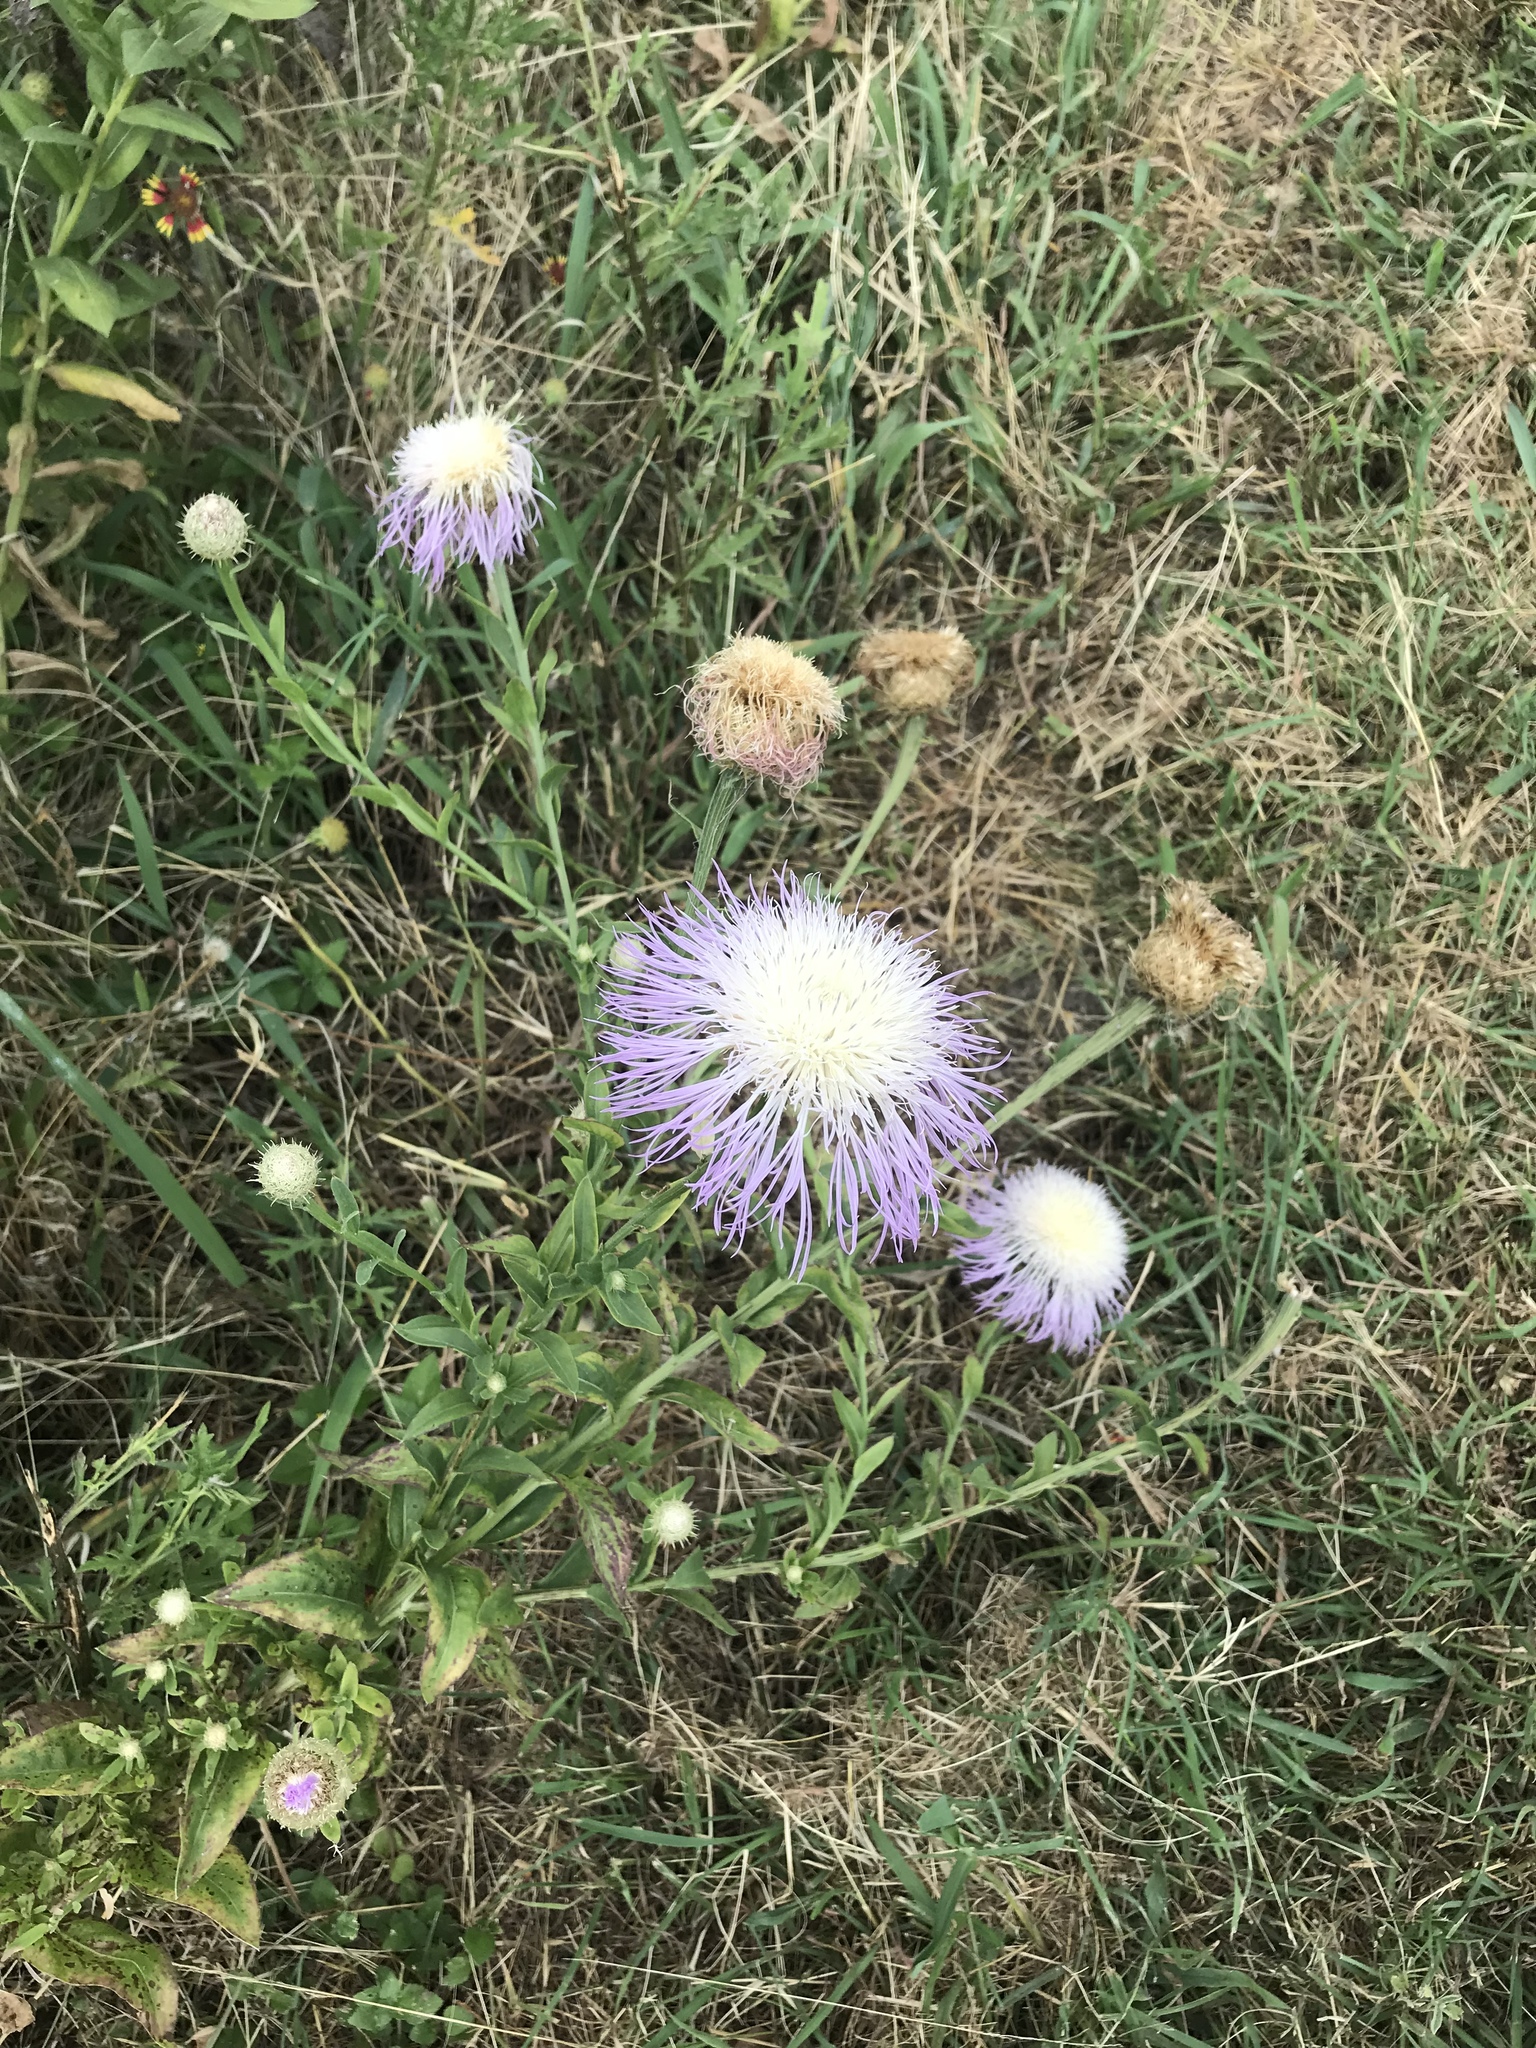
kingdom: Plantae
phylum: Tracheophyta
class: Magnoliopsida
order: Asterales
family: Asteraceae
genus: Plectocephalus
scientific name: Plectocephalus americanus
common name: American basket-flower
